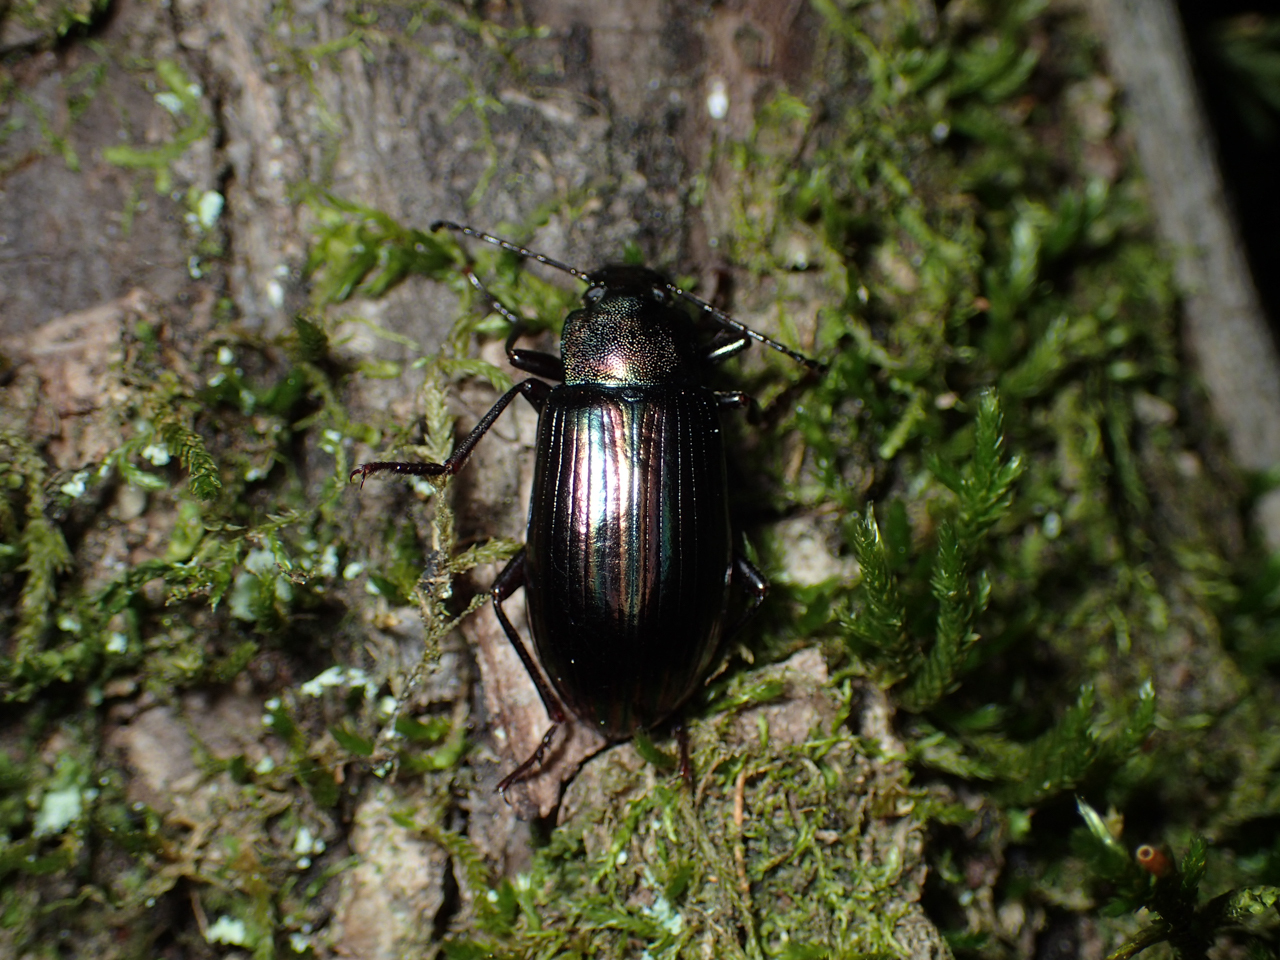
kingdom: Animalia
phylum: Arthropoda
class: Insecta
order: Coleoptera
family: Tenebrionidae
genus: Tarpela
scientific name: Tarpela micans
